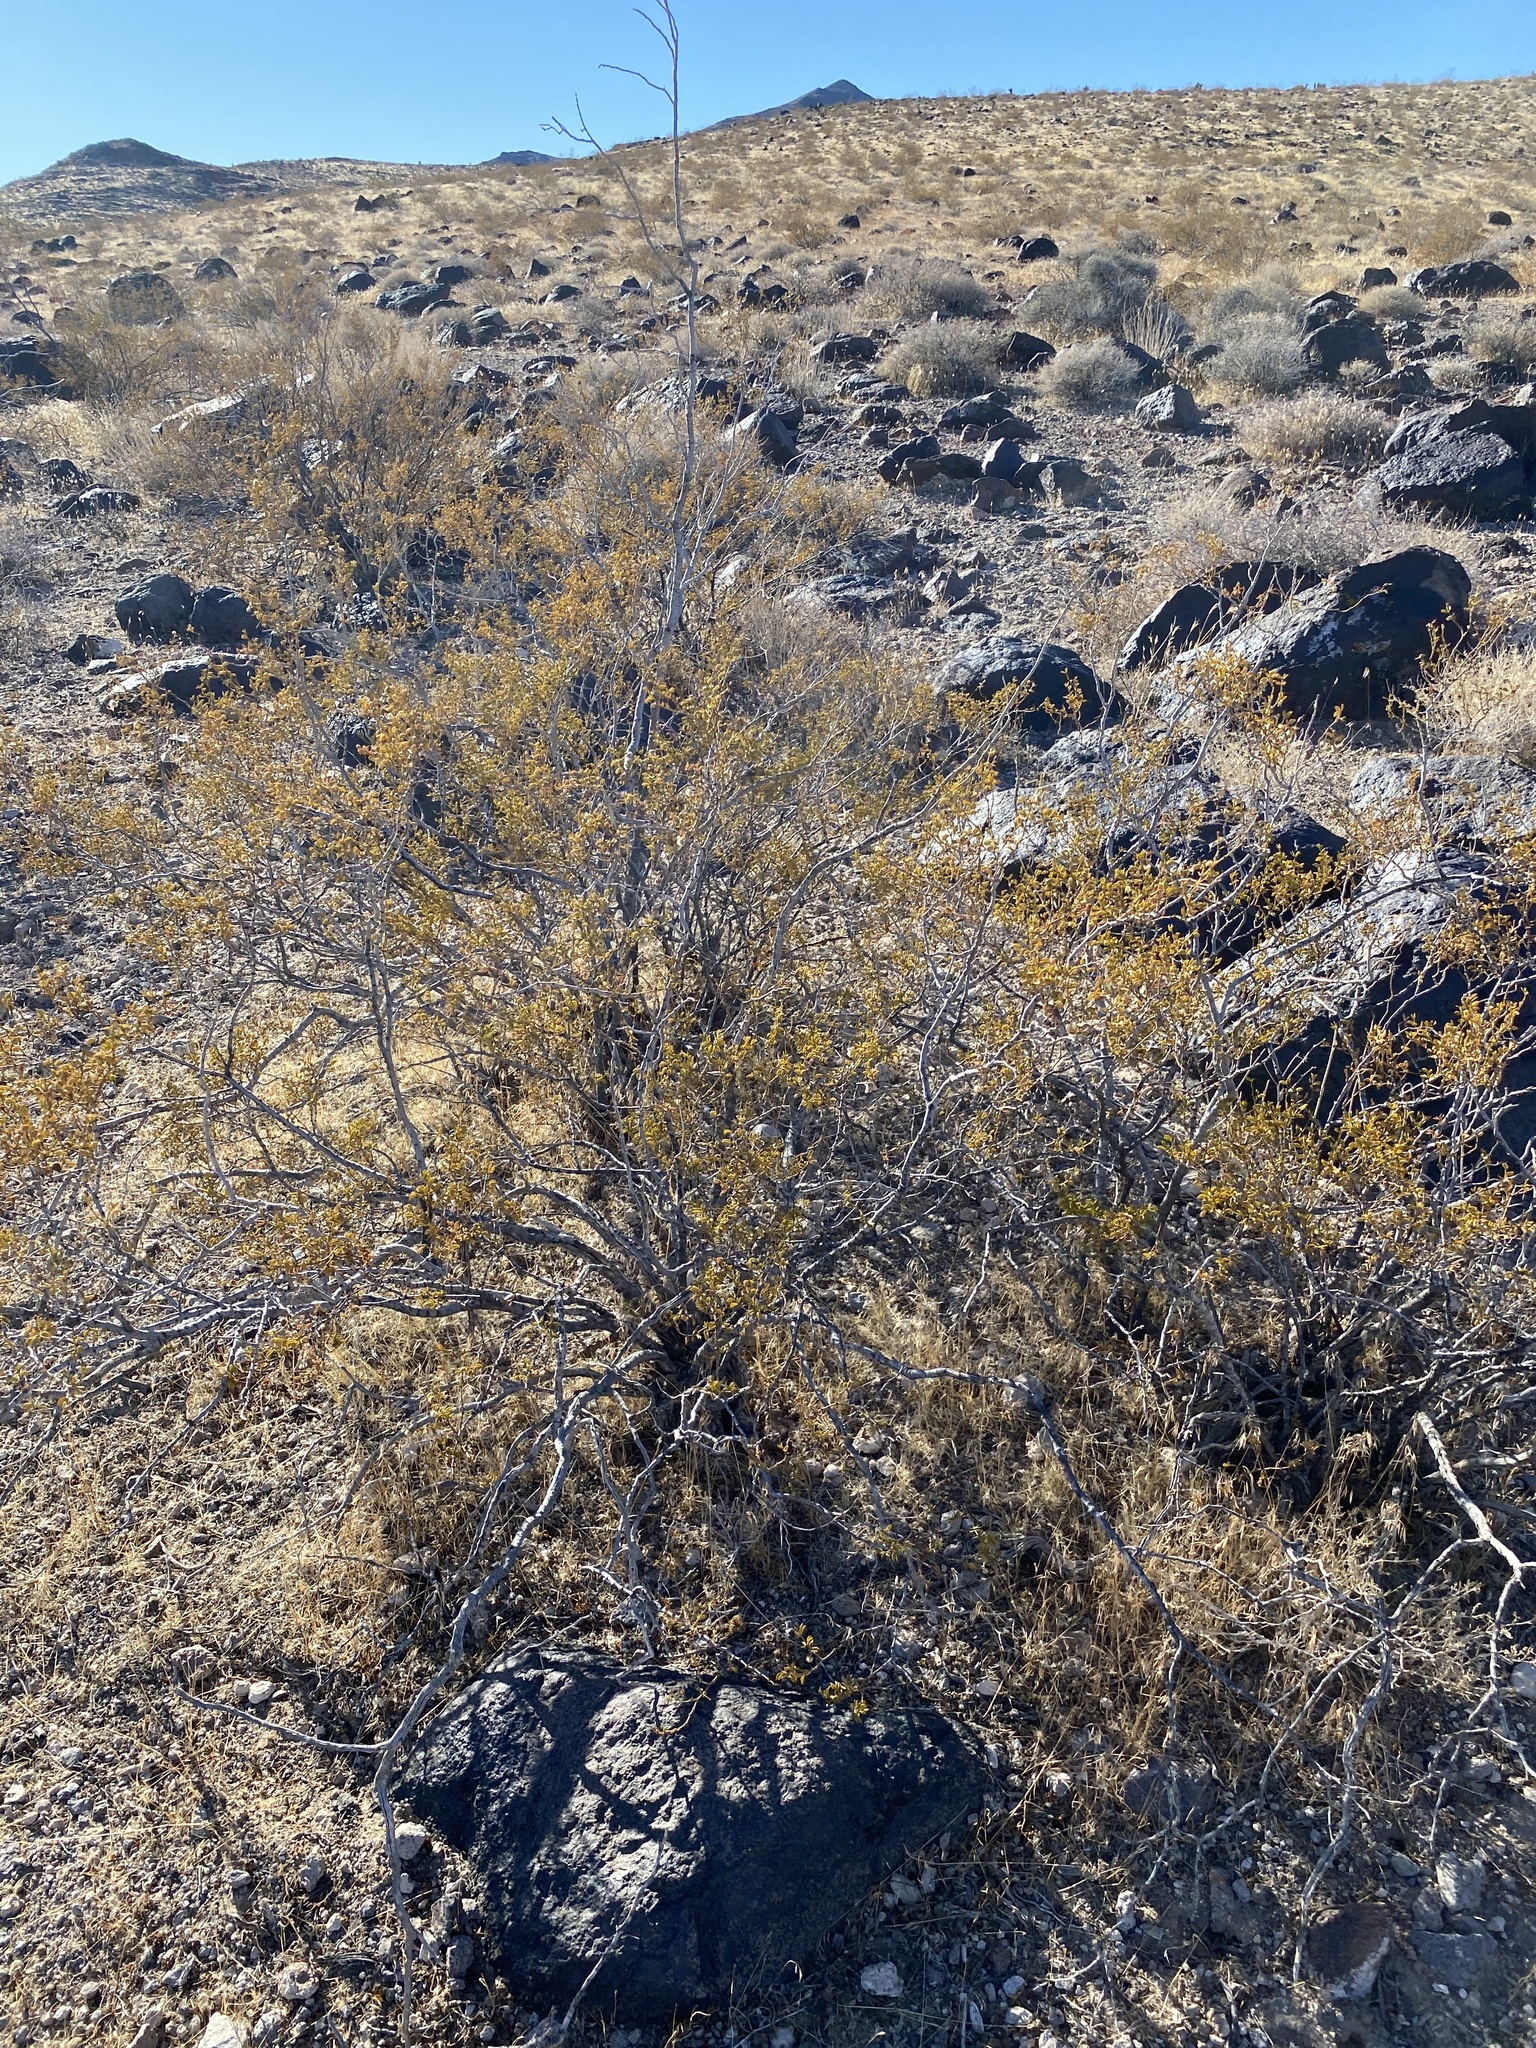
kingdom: Plantae
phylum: Tracheophyta
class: Magnoliopsida
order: Zygophyllales
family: Zygophyllaceae
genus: Larrea
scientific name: Larrea tridentata
